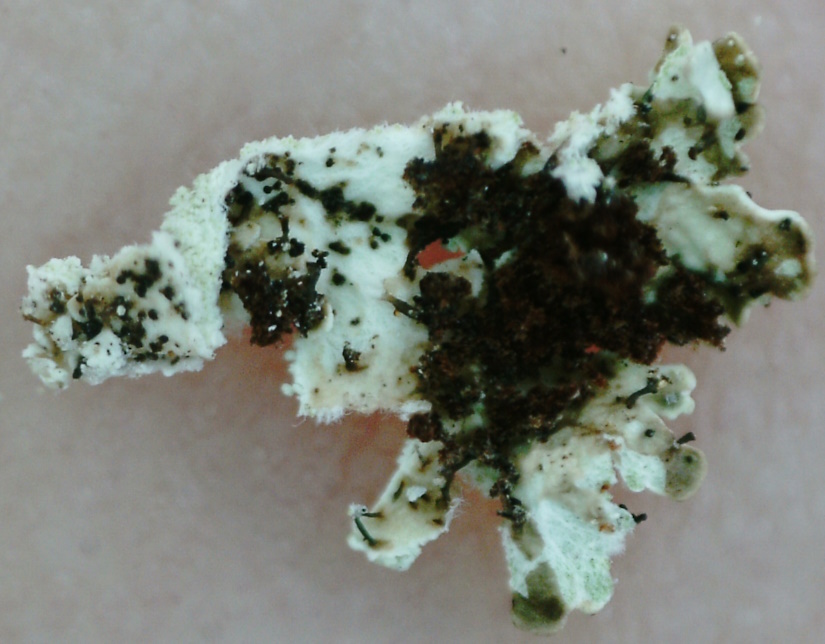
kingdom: Fungi
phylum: Ascomycota
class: Lecanoromycetes
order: Lecanorales
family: Parmeliaceae
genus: Imshaugia
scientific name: Imshaugia aleurites
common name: Salted starburst lichen
